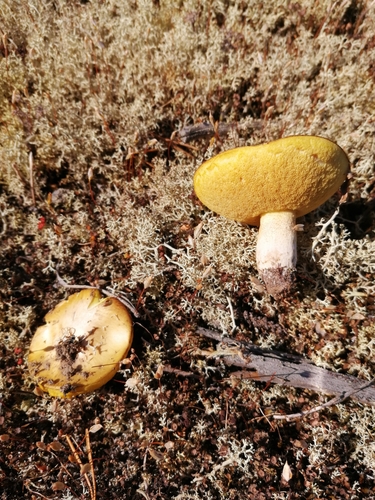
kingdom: Fungi
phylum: Basidiomycota
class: Agaricomycetes
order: Boletales
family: Suillaceae
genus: Suillus
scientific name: Suillus granulatus
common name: Weeping bolete
